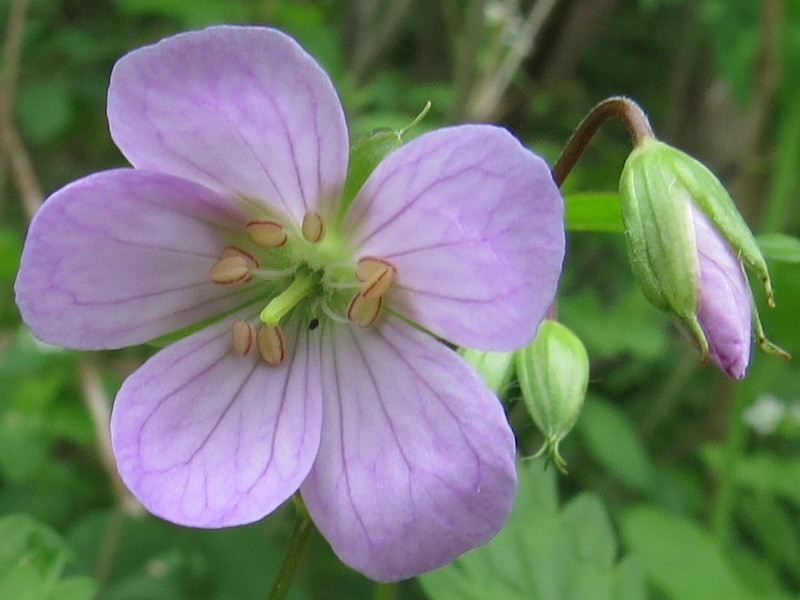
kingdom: Plantae
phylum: Tracheophyta
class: Magnoliopsida
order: Geraniales
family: Geraniaceae
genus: Geranium
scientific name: Geranium maculatum
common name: Spotted geranium
